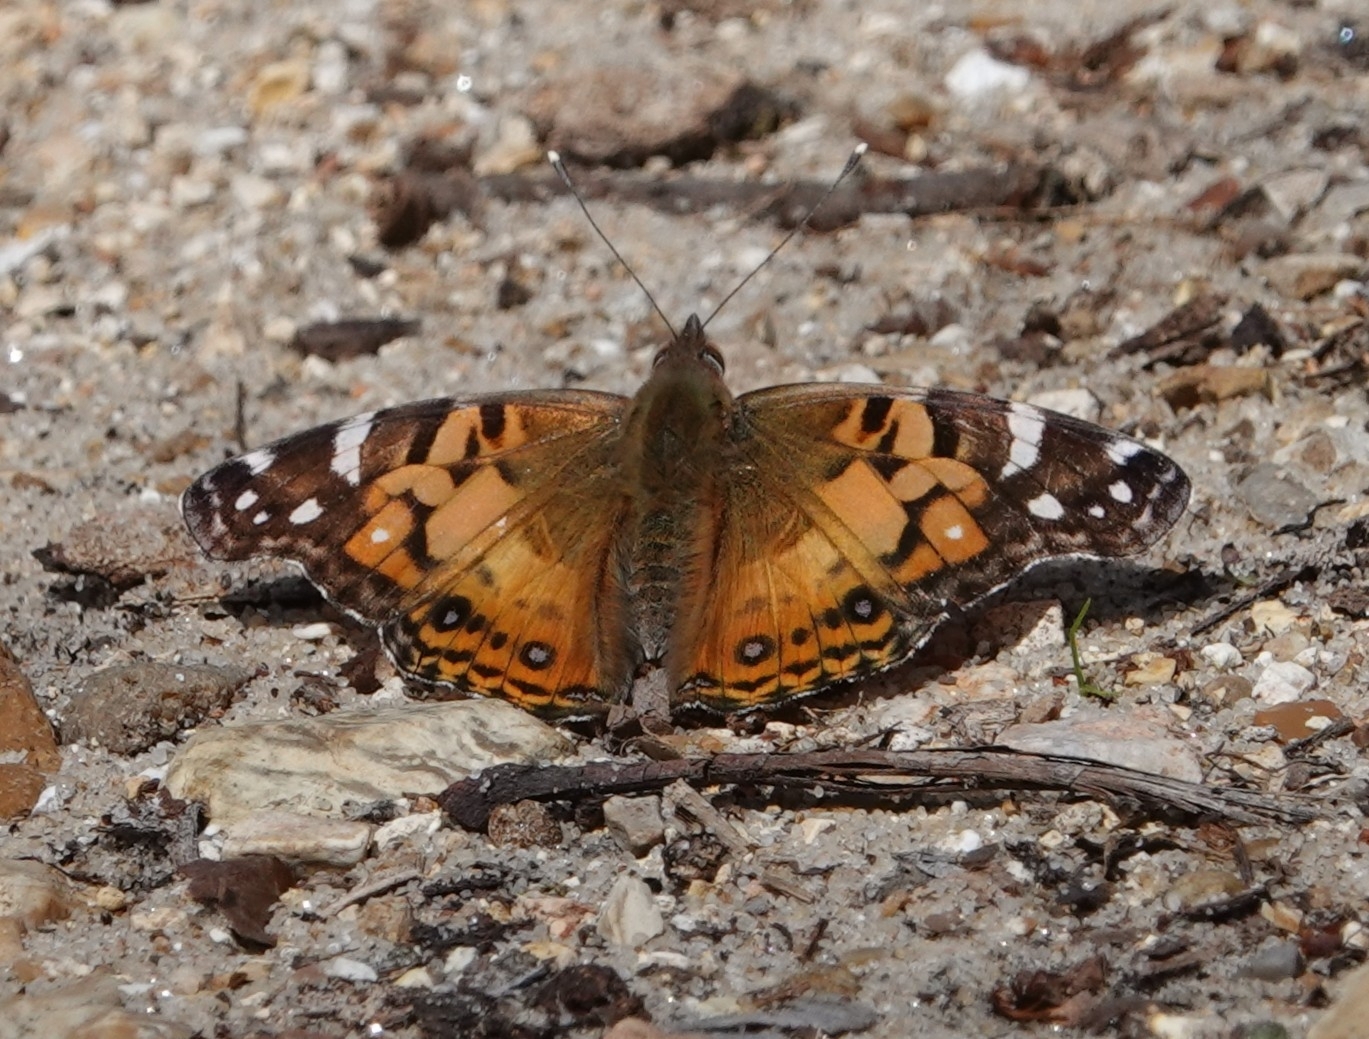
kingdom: Animalia
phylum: Arthropoda
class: Insecta
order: Lepidoptera
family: Nymphalidae
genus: Vanessa
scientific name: Vanessa virginiensis
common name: American lady
